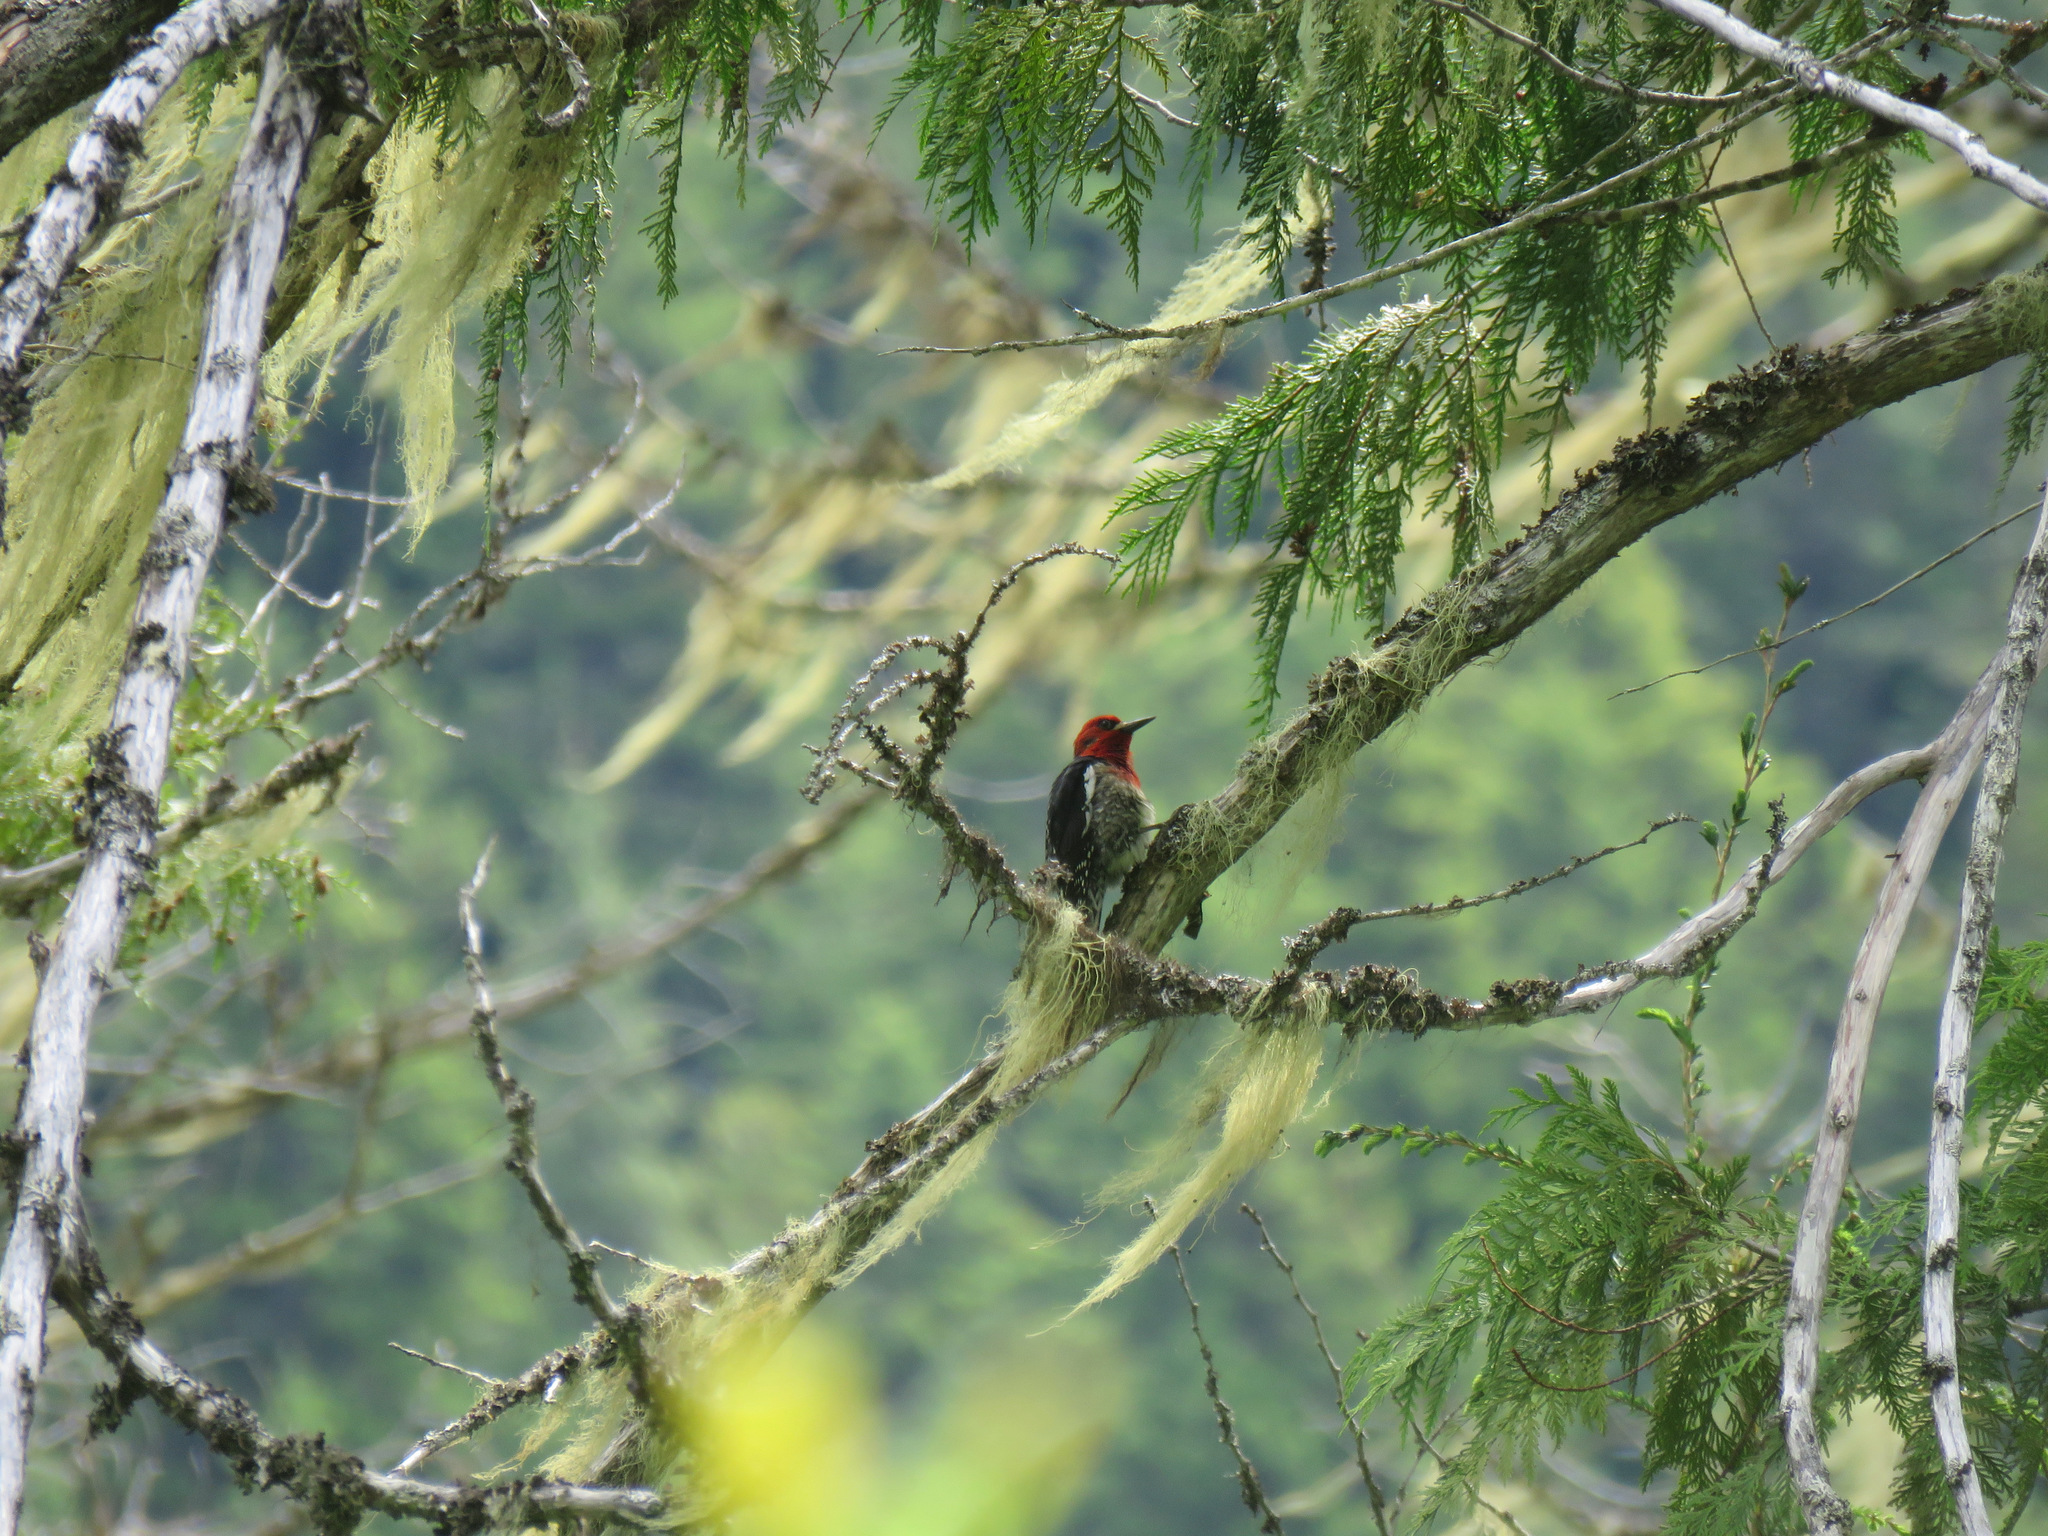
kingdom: Animalia
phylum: Chordata
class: Aves
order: Piciformes
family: Picidae
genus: Sphyrapicus
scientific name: Sphyrapicus ruber
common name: Red-breasted sapsucker
